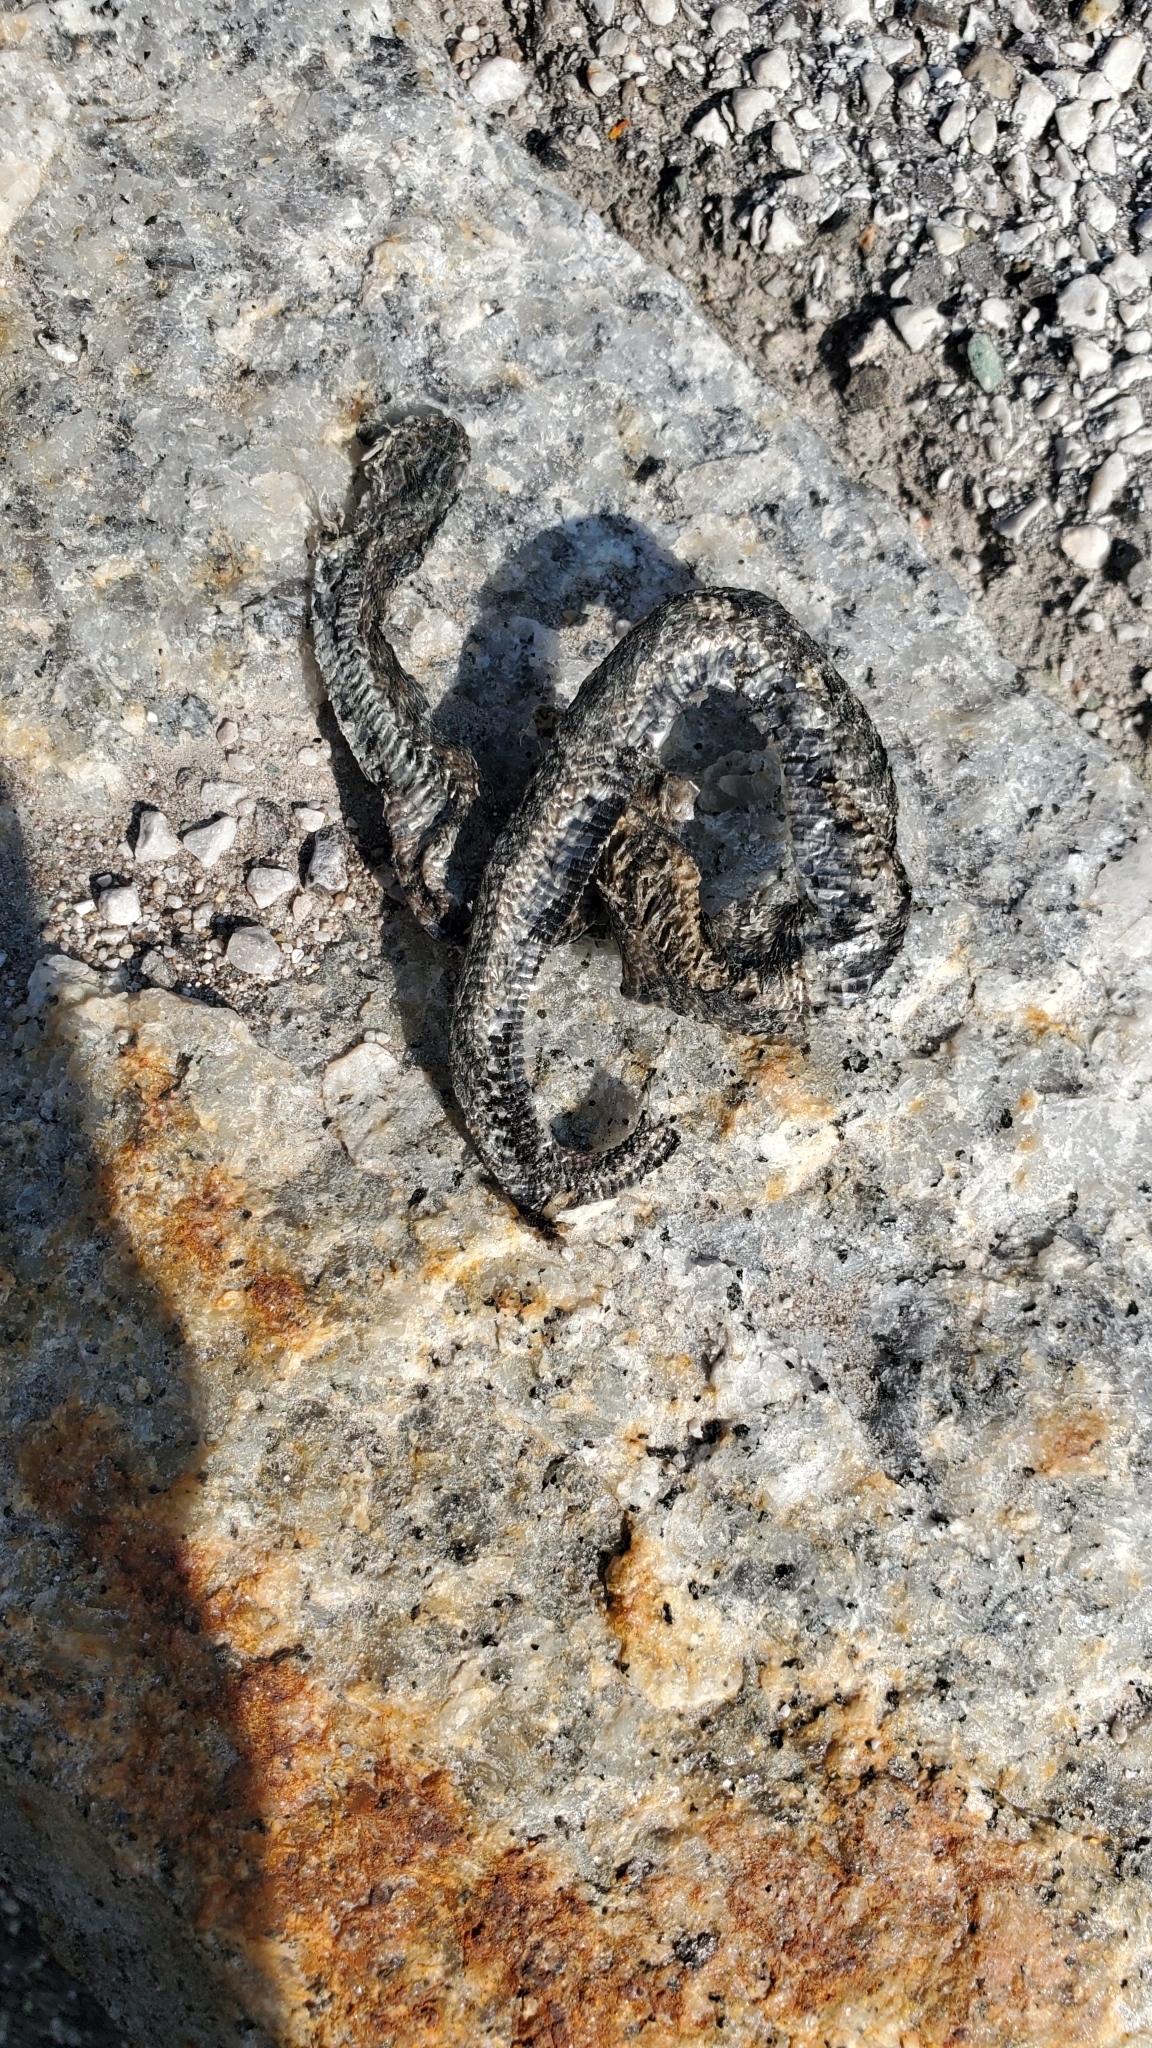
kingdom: Animalia
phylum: Chordata
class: Squamata
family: Colubridae
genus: Natrix
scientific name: Natrix tessellata
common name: Dice snake
